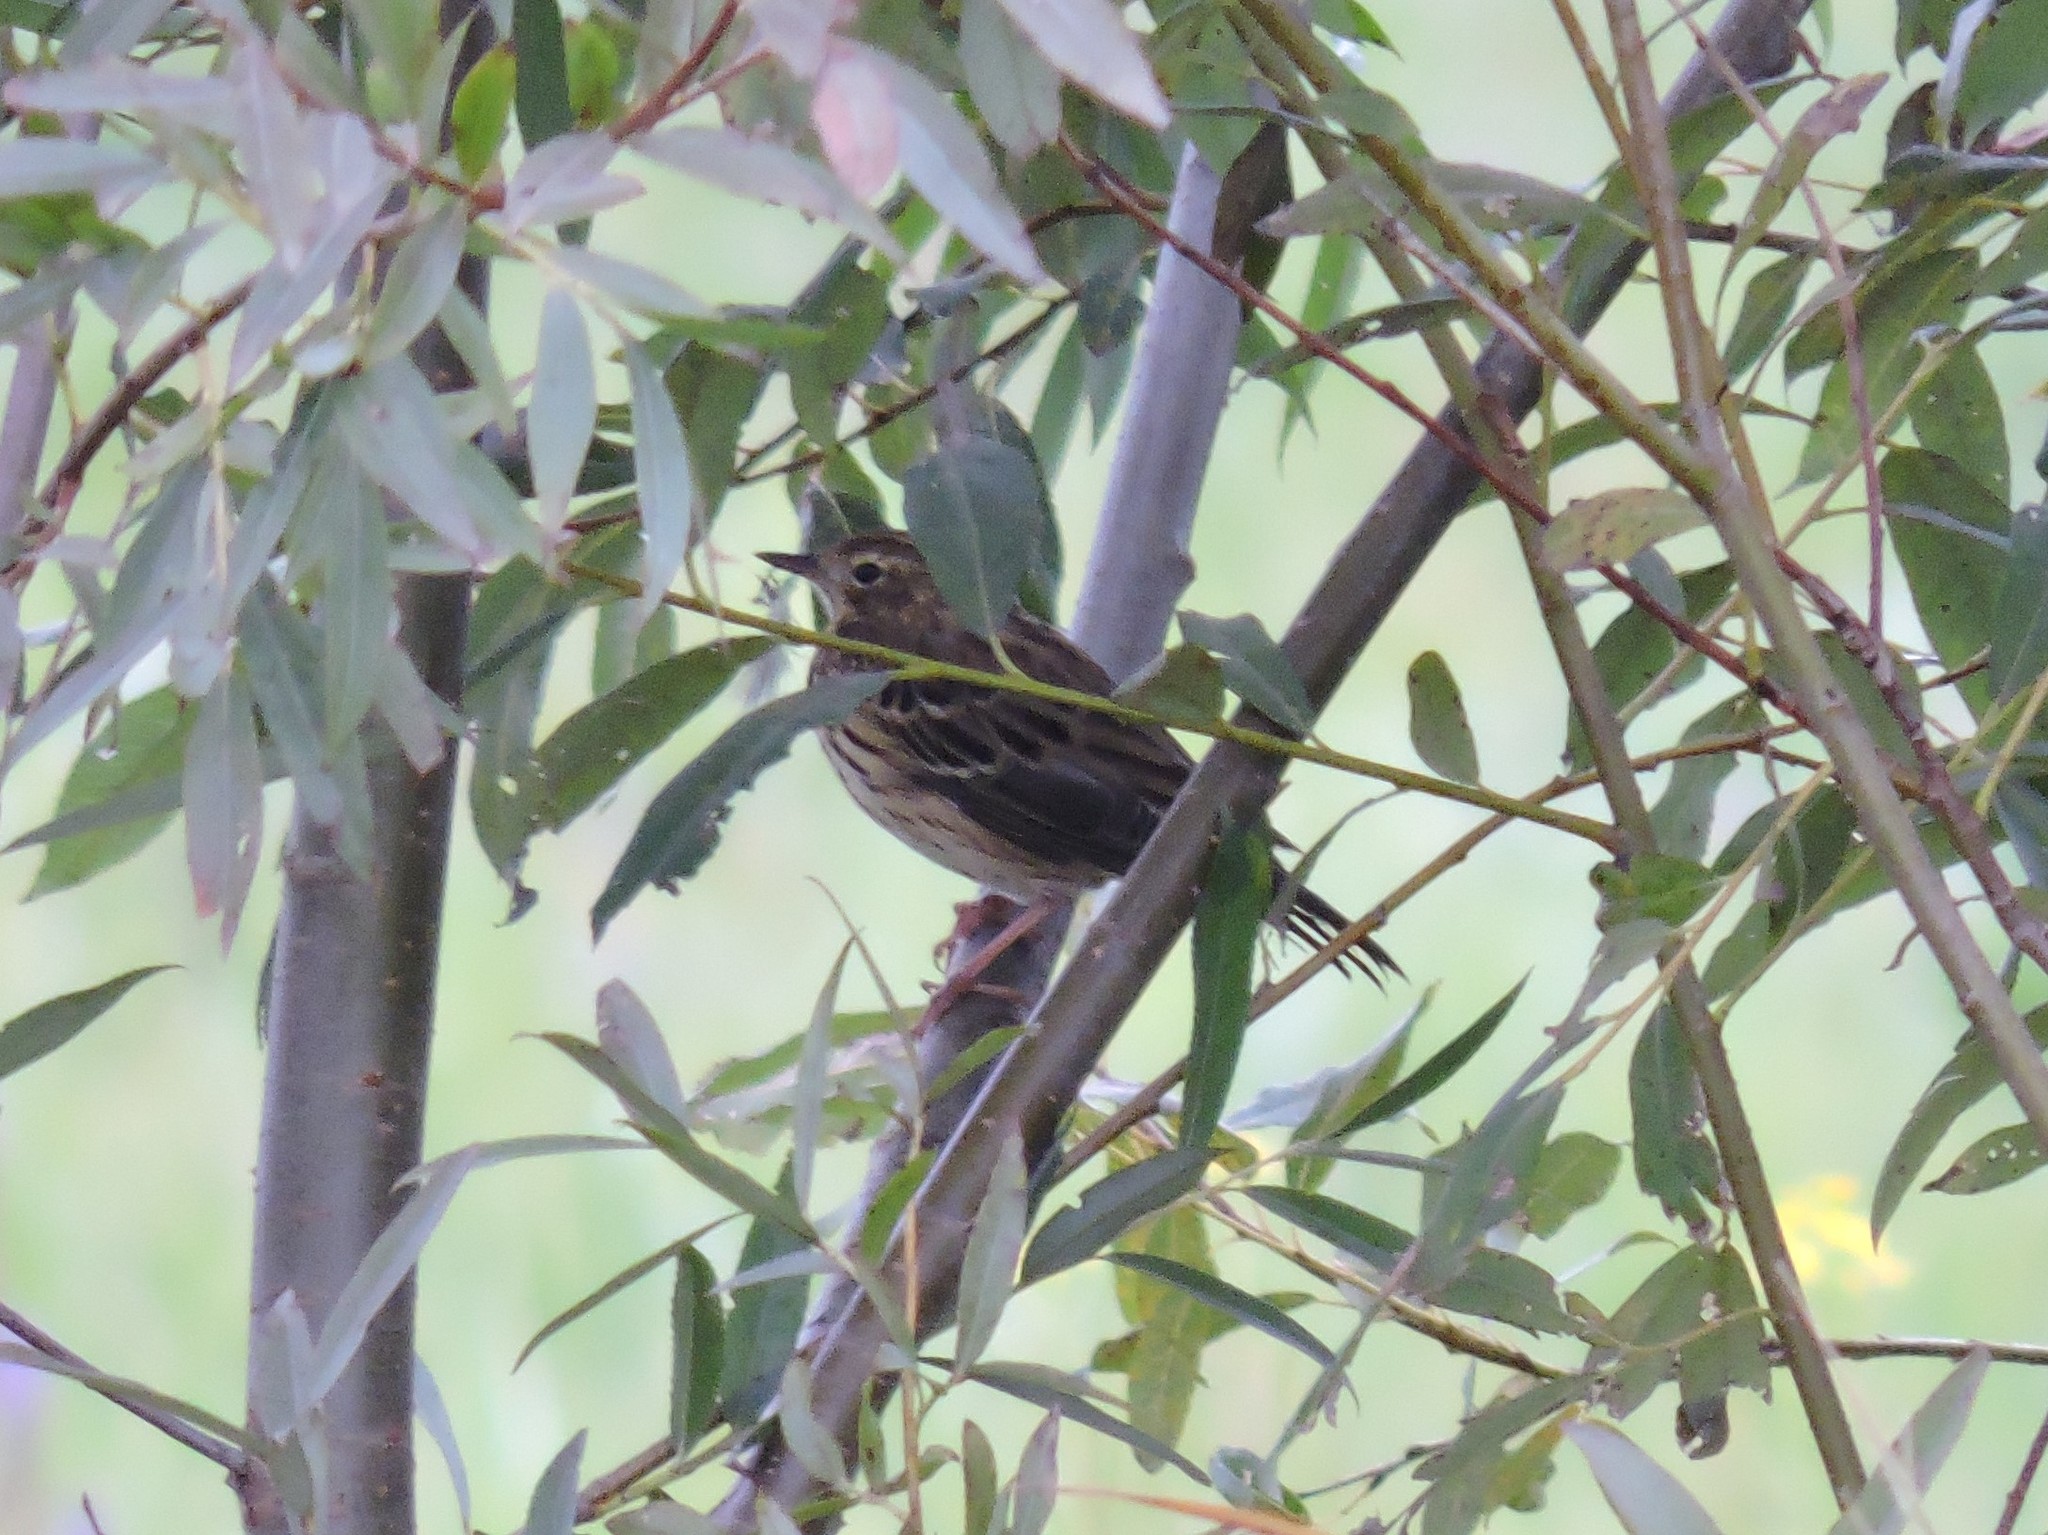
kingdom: Animalia
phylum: Chordata
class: Aves
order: Passeriformes
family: Motacillidae
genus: Anthus
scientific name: Anthus trivialis
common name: Tree pipit
